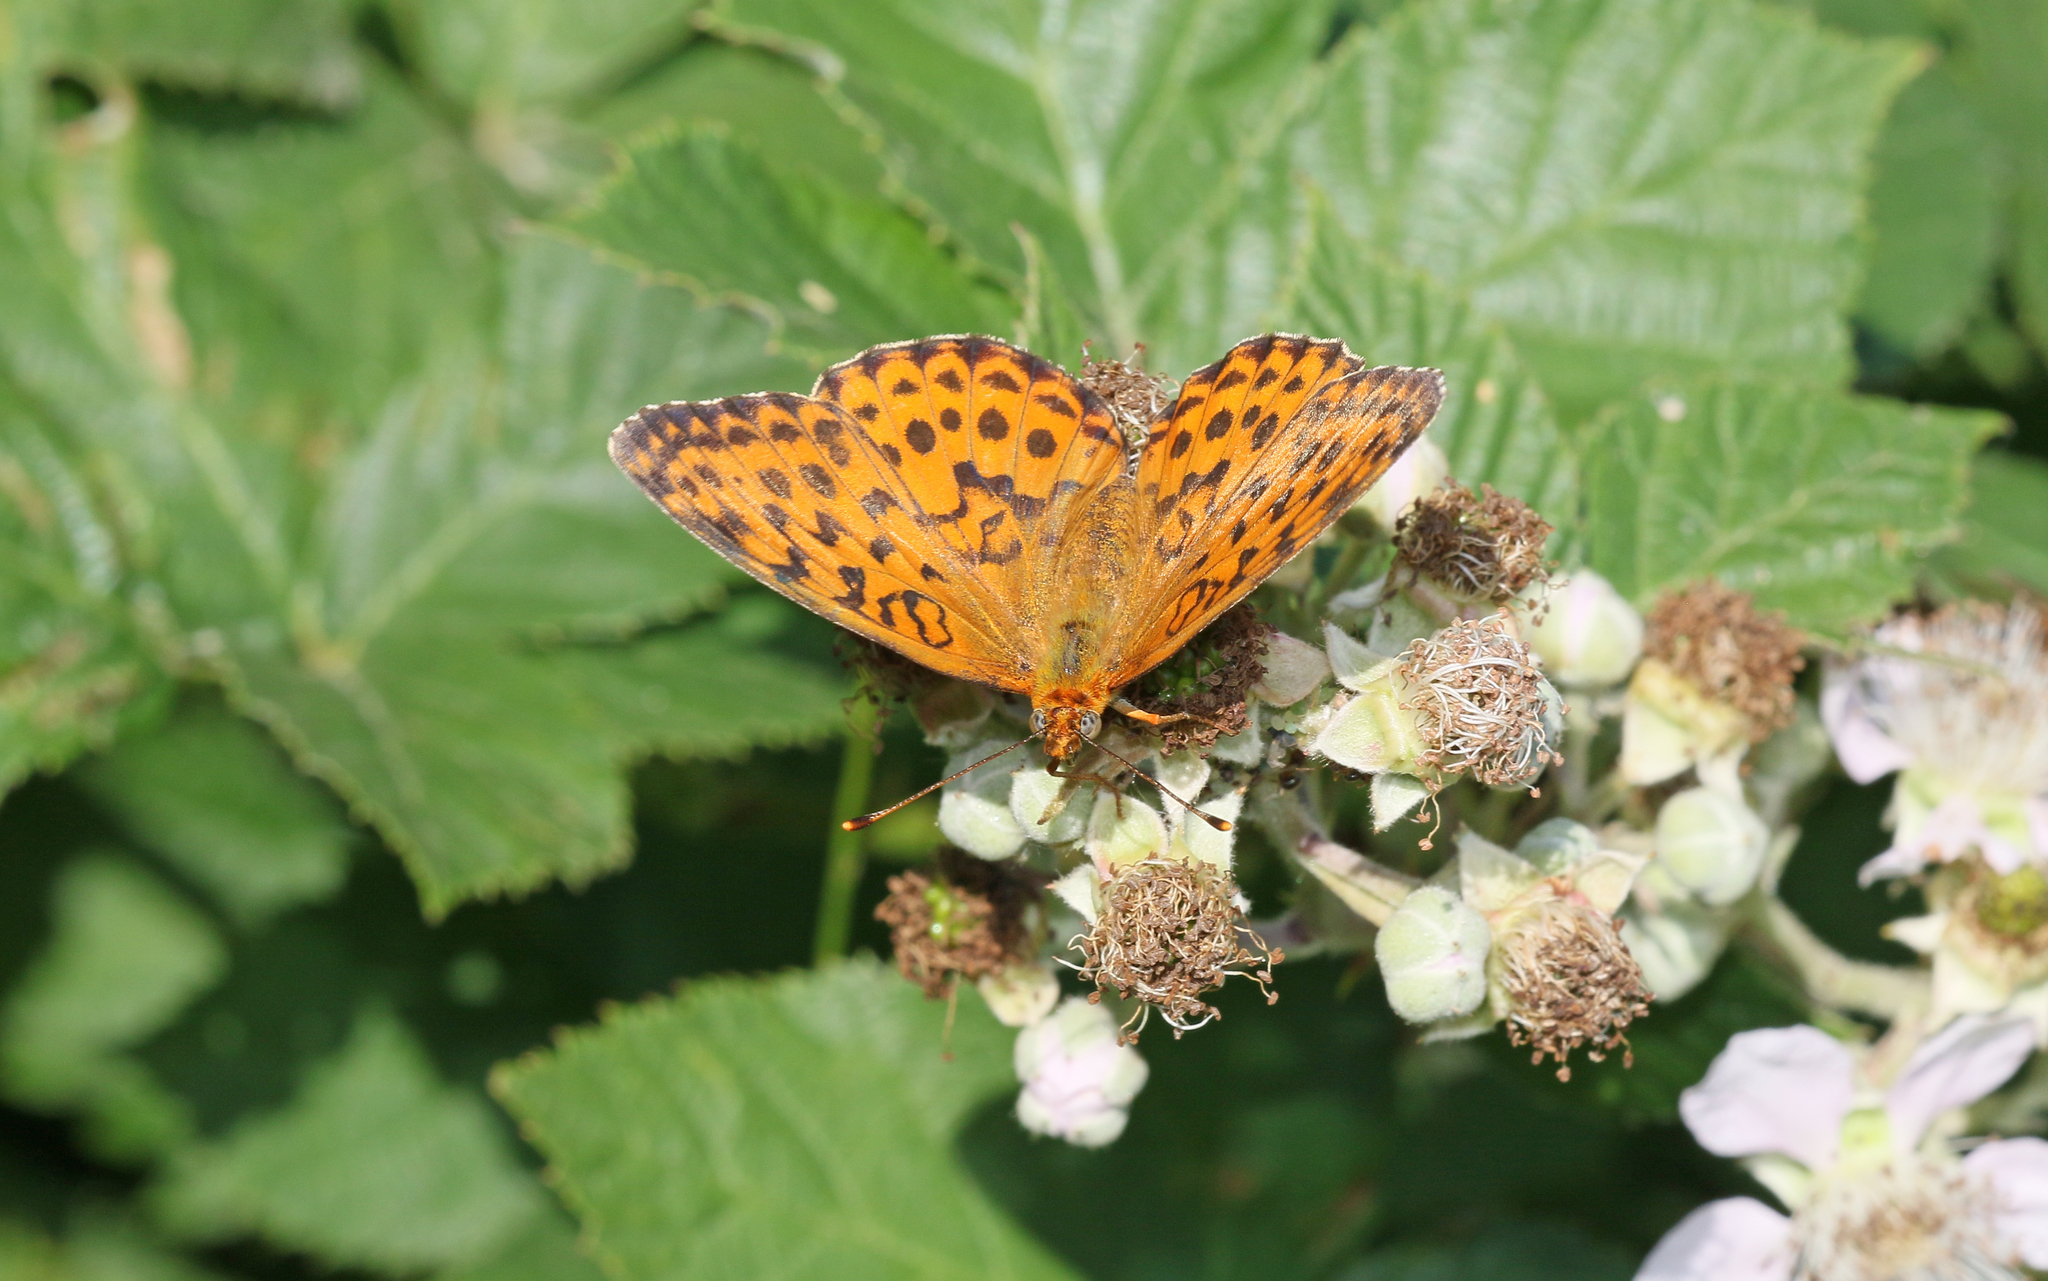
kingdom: Animalia
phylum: Arthropoda
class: Insecta
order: Lepidoptera
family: Nymphalidae
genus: Brenthis
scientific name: Brenthis daphne
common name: Marbled fritillary
